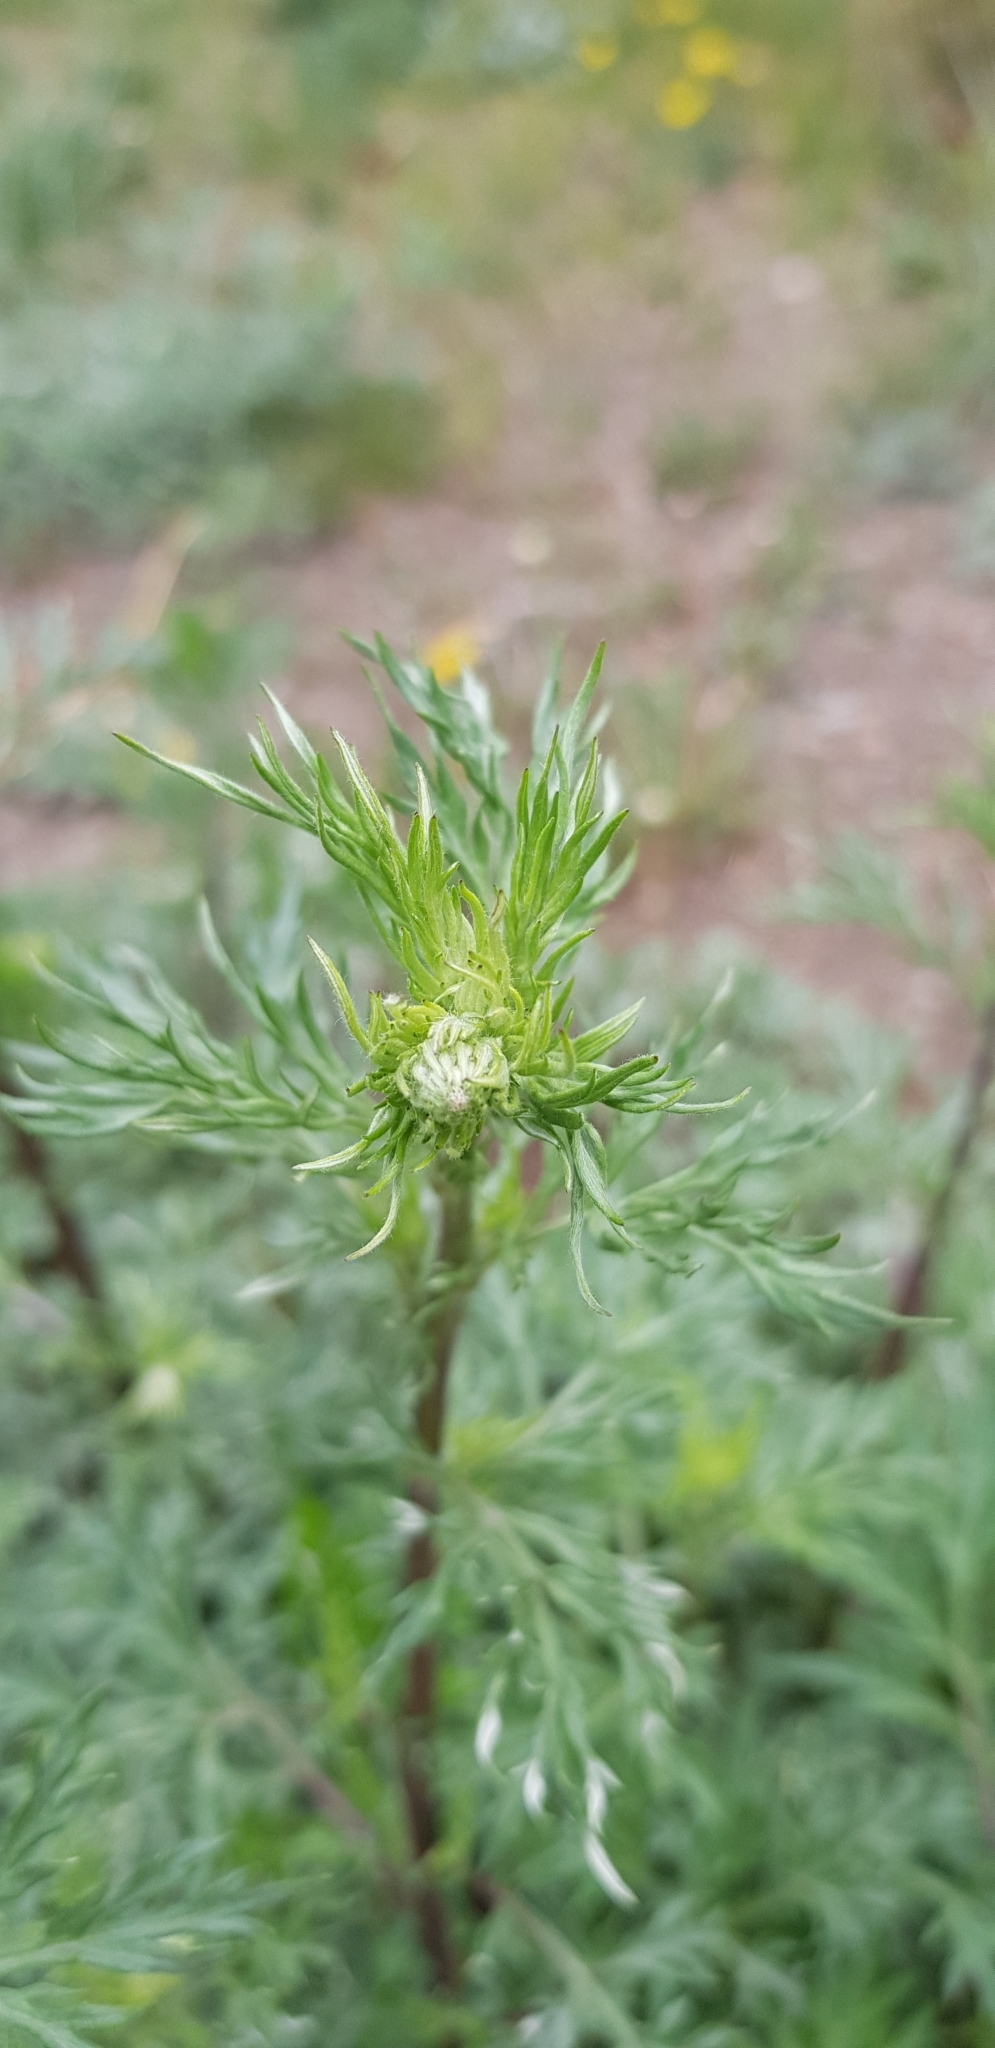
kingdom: Plantae
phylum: Tracheophyta
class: Magnoliopsida
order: Asterales
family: Asteraceae
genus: Artemisia
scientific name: Artemisia gmelinii
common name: Gmelin's wormwood
